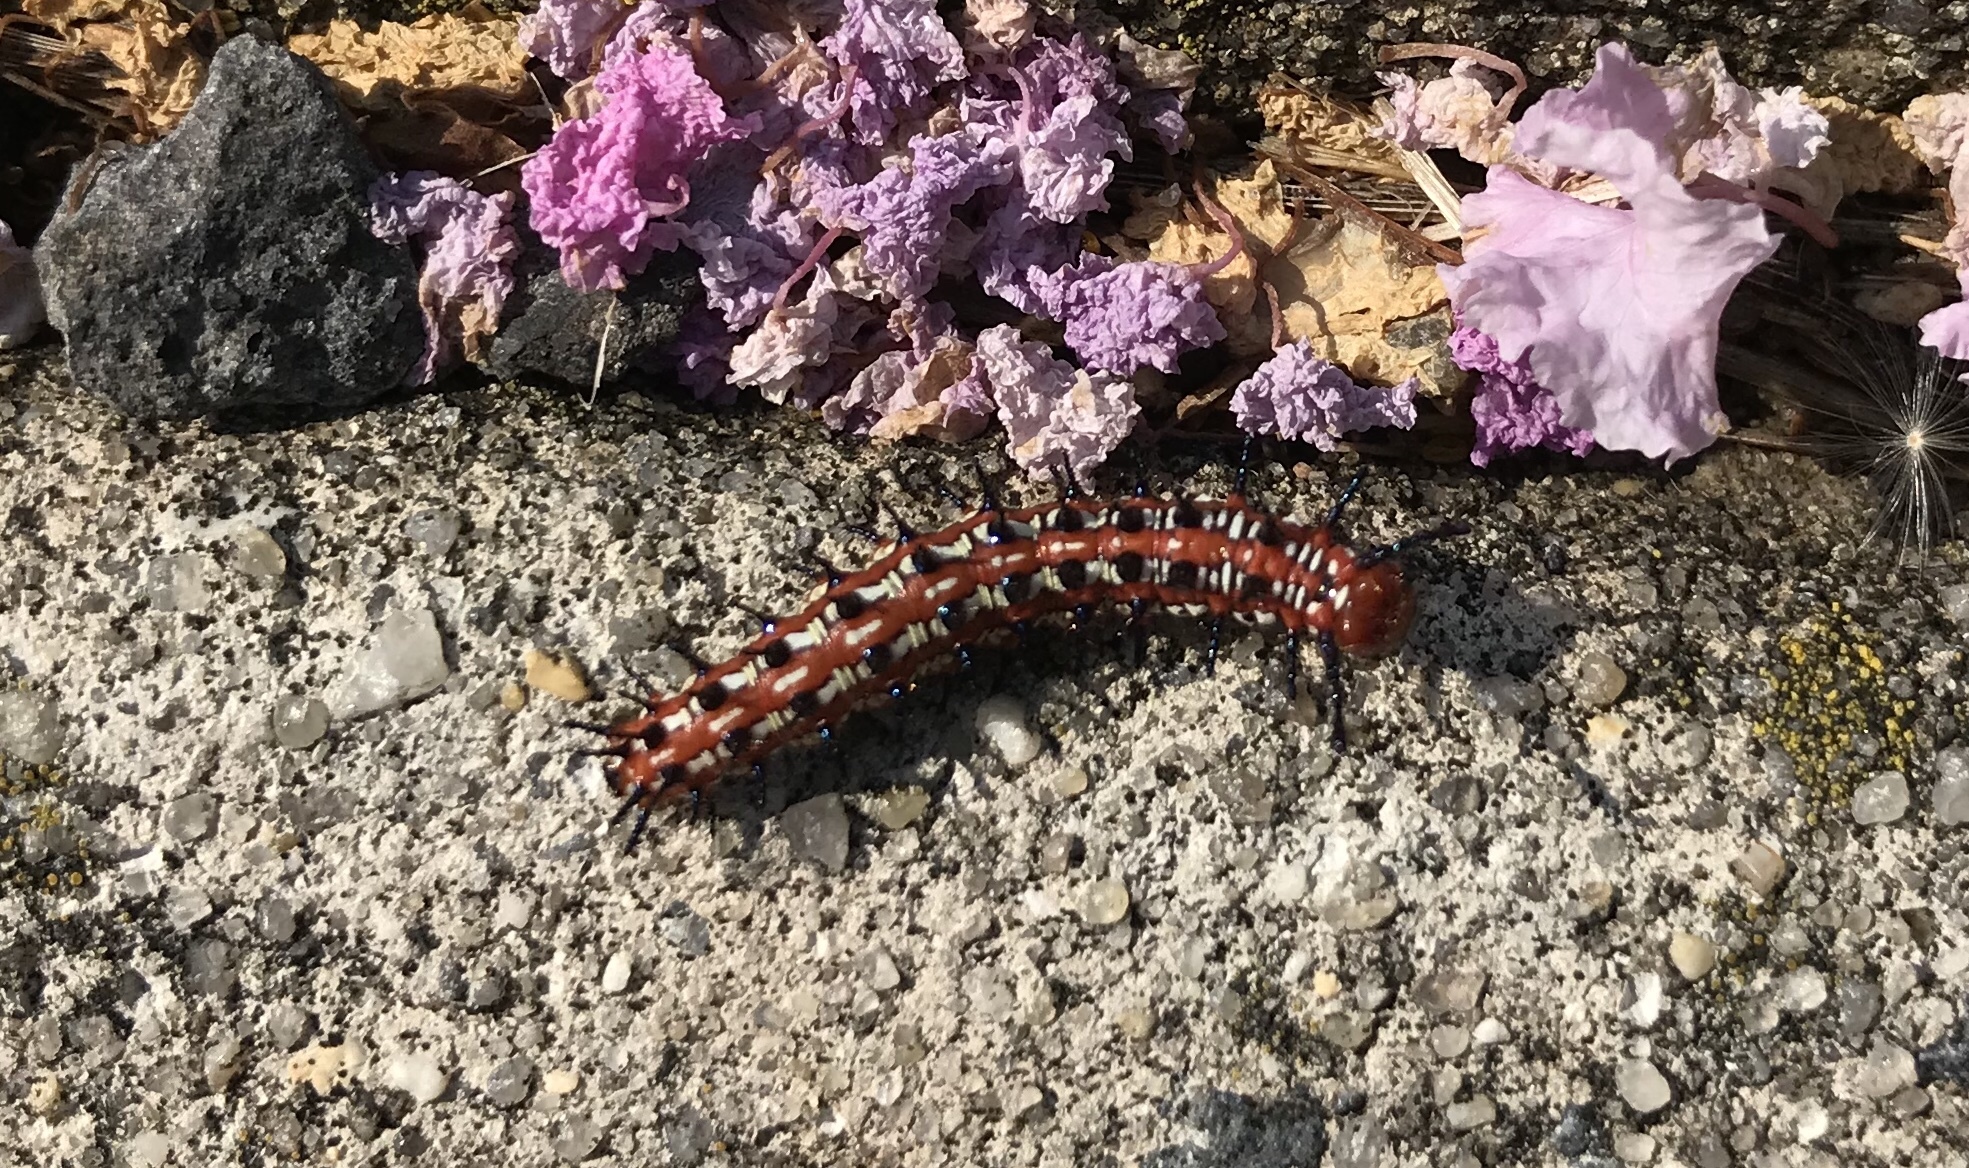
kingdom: Animalia
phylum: Arthropoda
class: Insecta
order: Lepidoptera
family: Nymphalidae
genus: Euptoieta
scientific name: Euptoieta claudia
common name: Variegated fritillary
